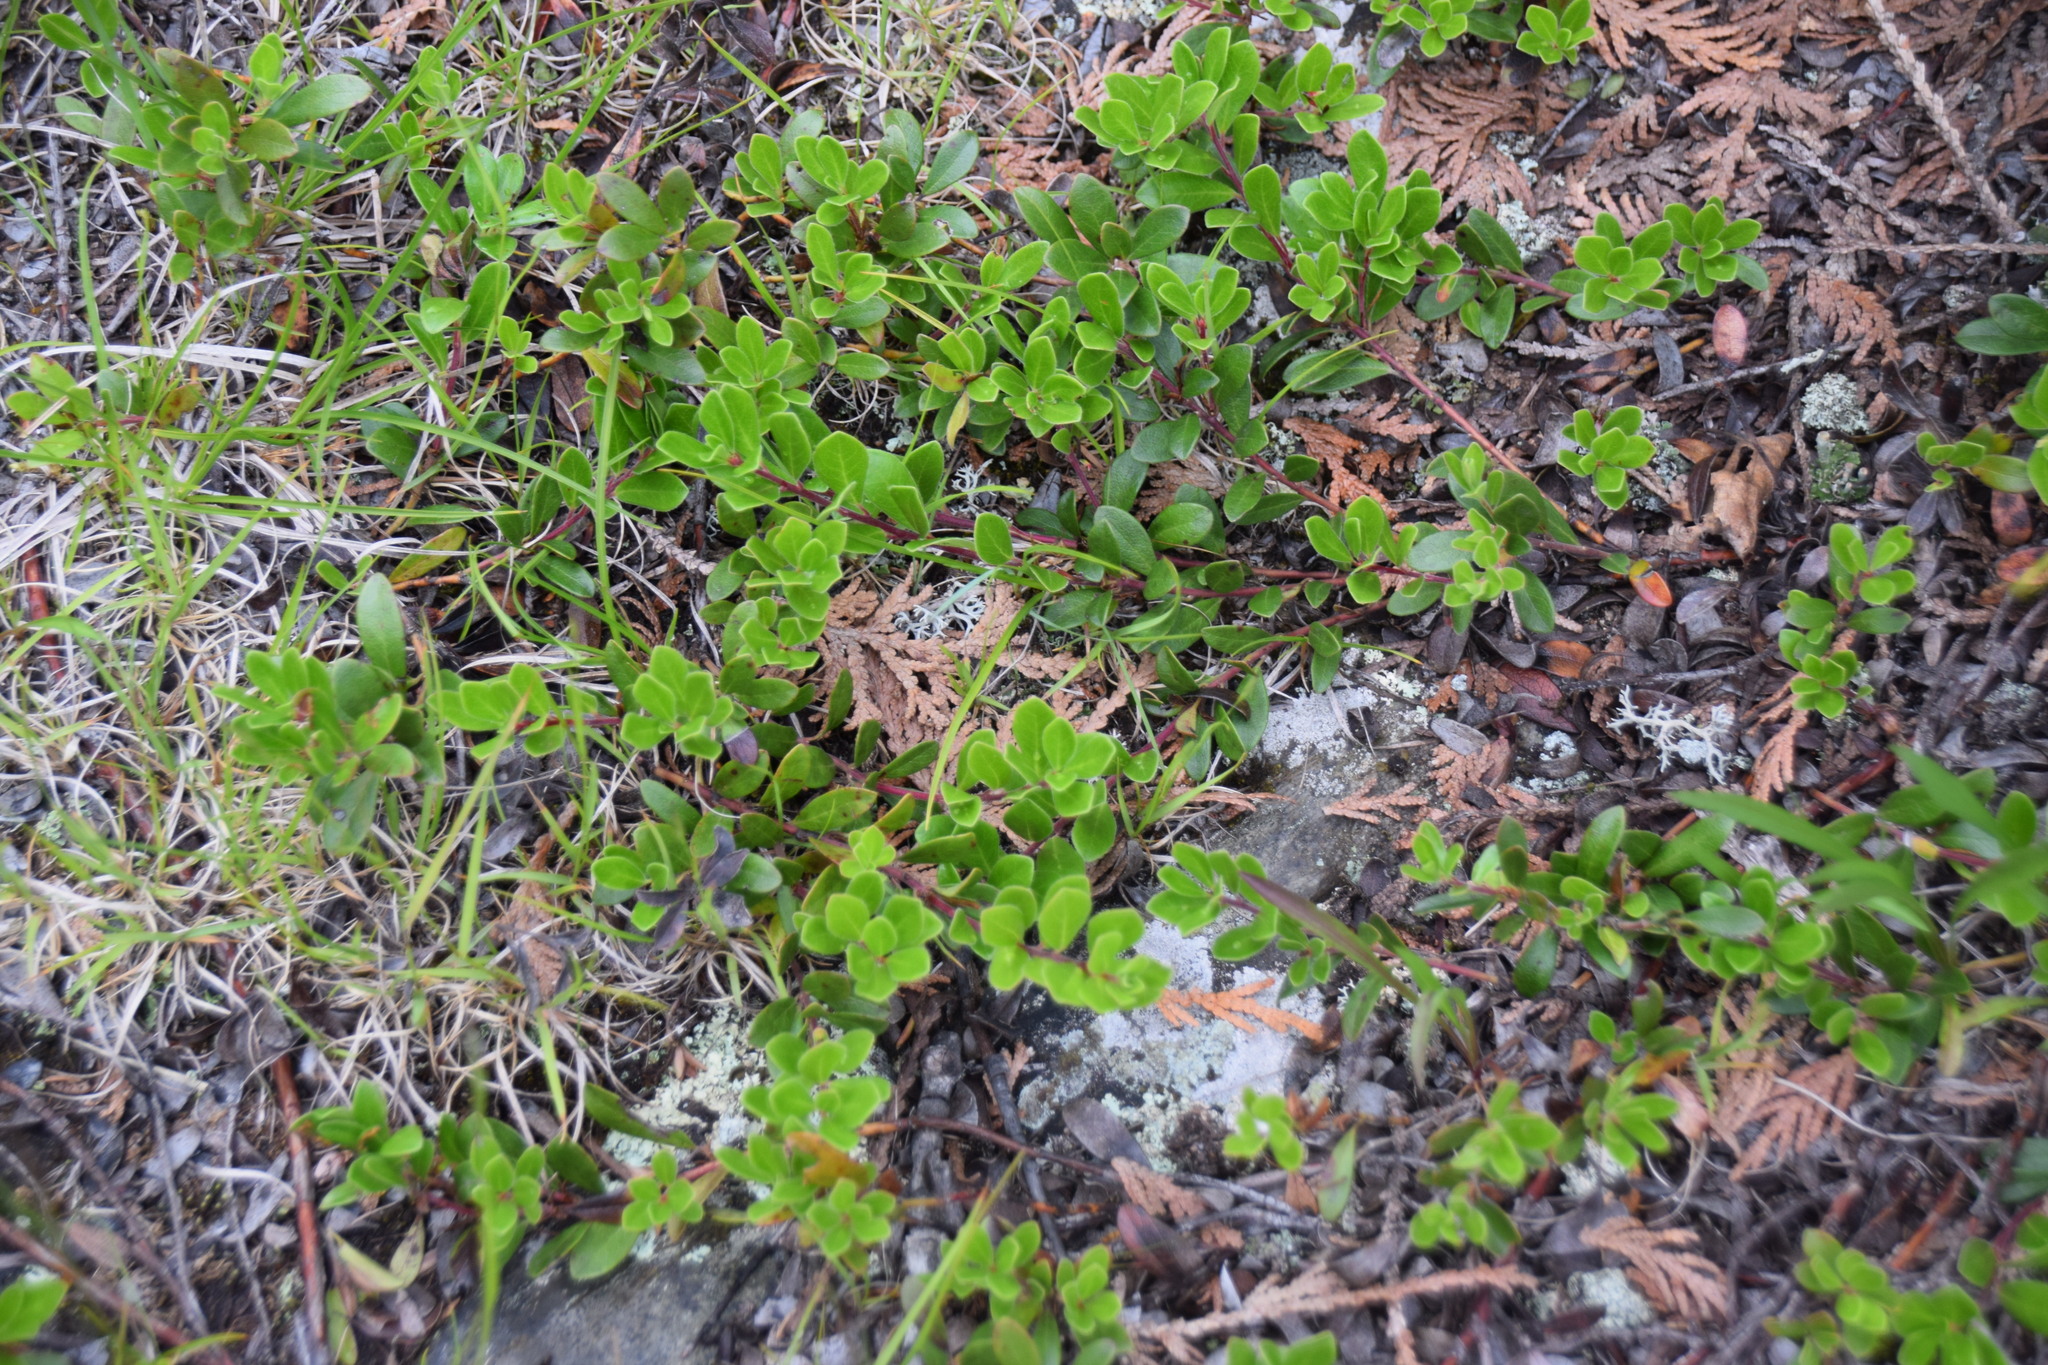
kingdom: Plantae
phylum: Tracheophyta
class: Magnoliopsida
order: Ericales
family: Ericaceae
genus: Arctostaphylos
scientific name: Arctostaphylos uva-ursi
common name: Bearberry
